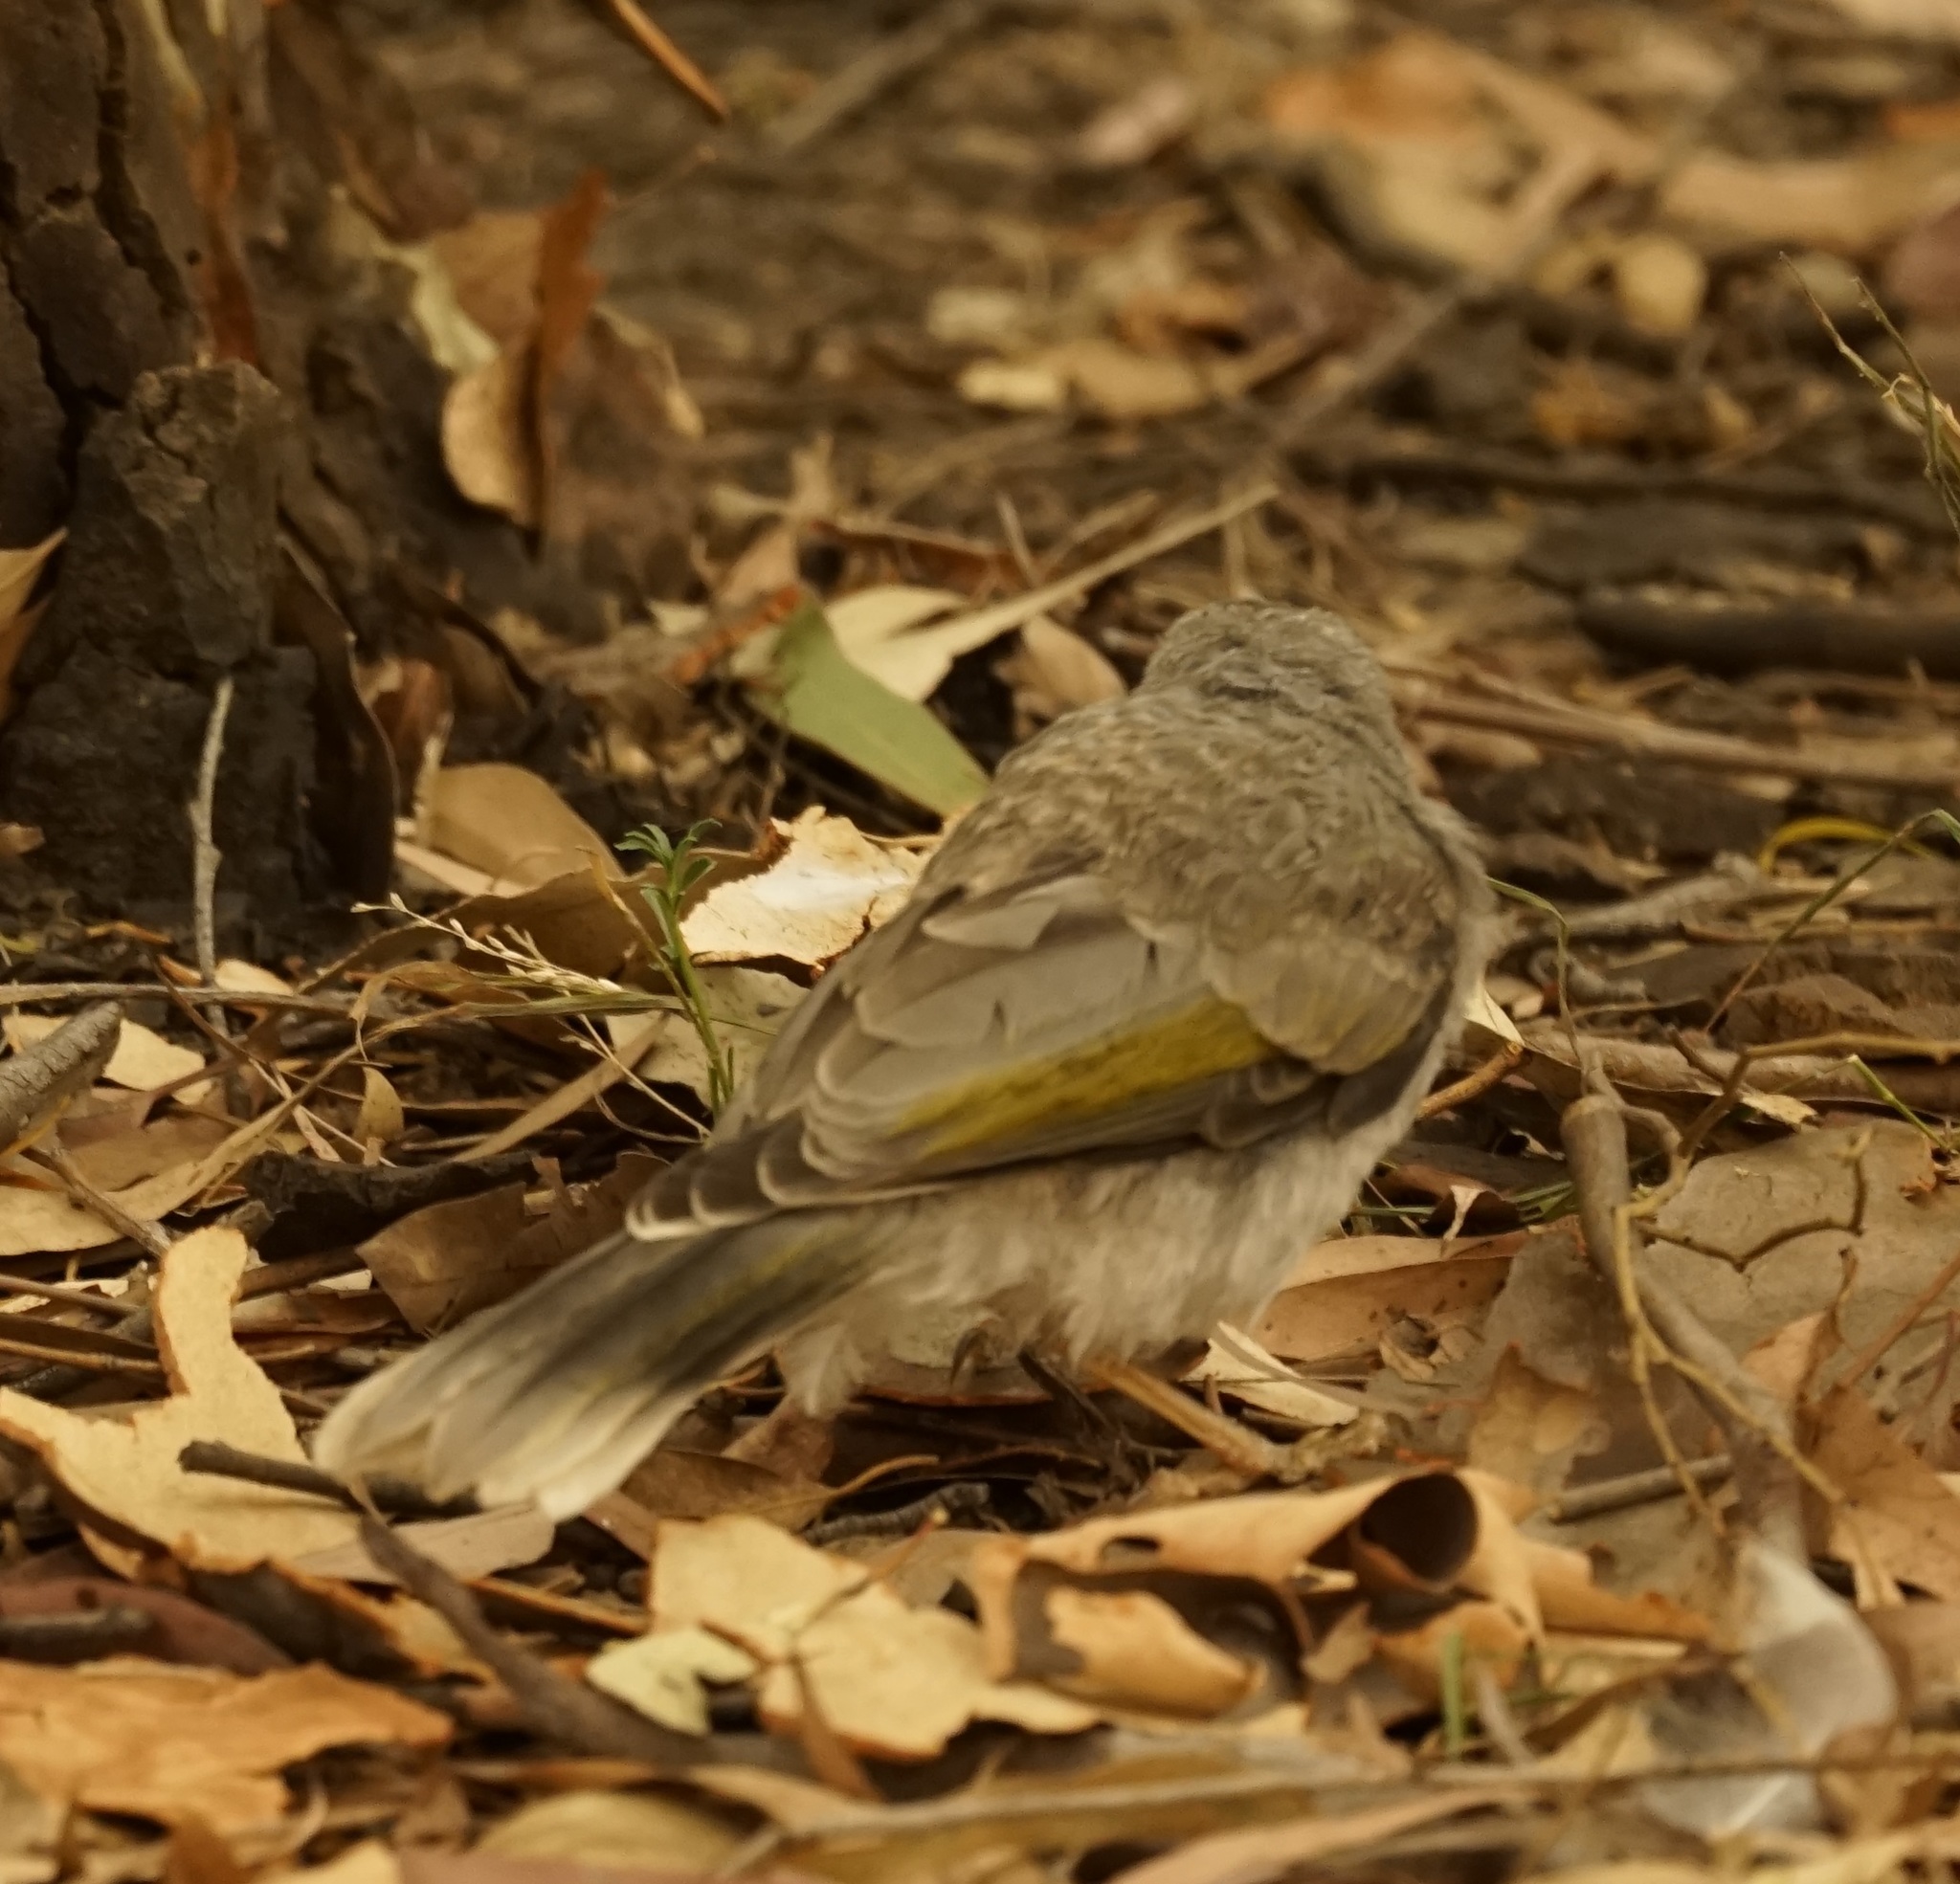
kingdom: Animalia
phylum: Chordata
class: Aves
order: Passeriformes
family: Meliphagidae
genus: Manorina
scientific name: Manorina melanocephala
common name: Noisy miner
